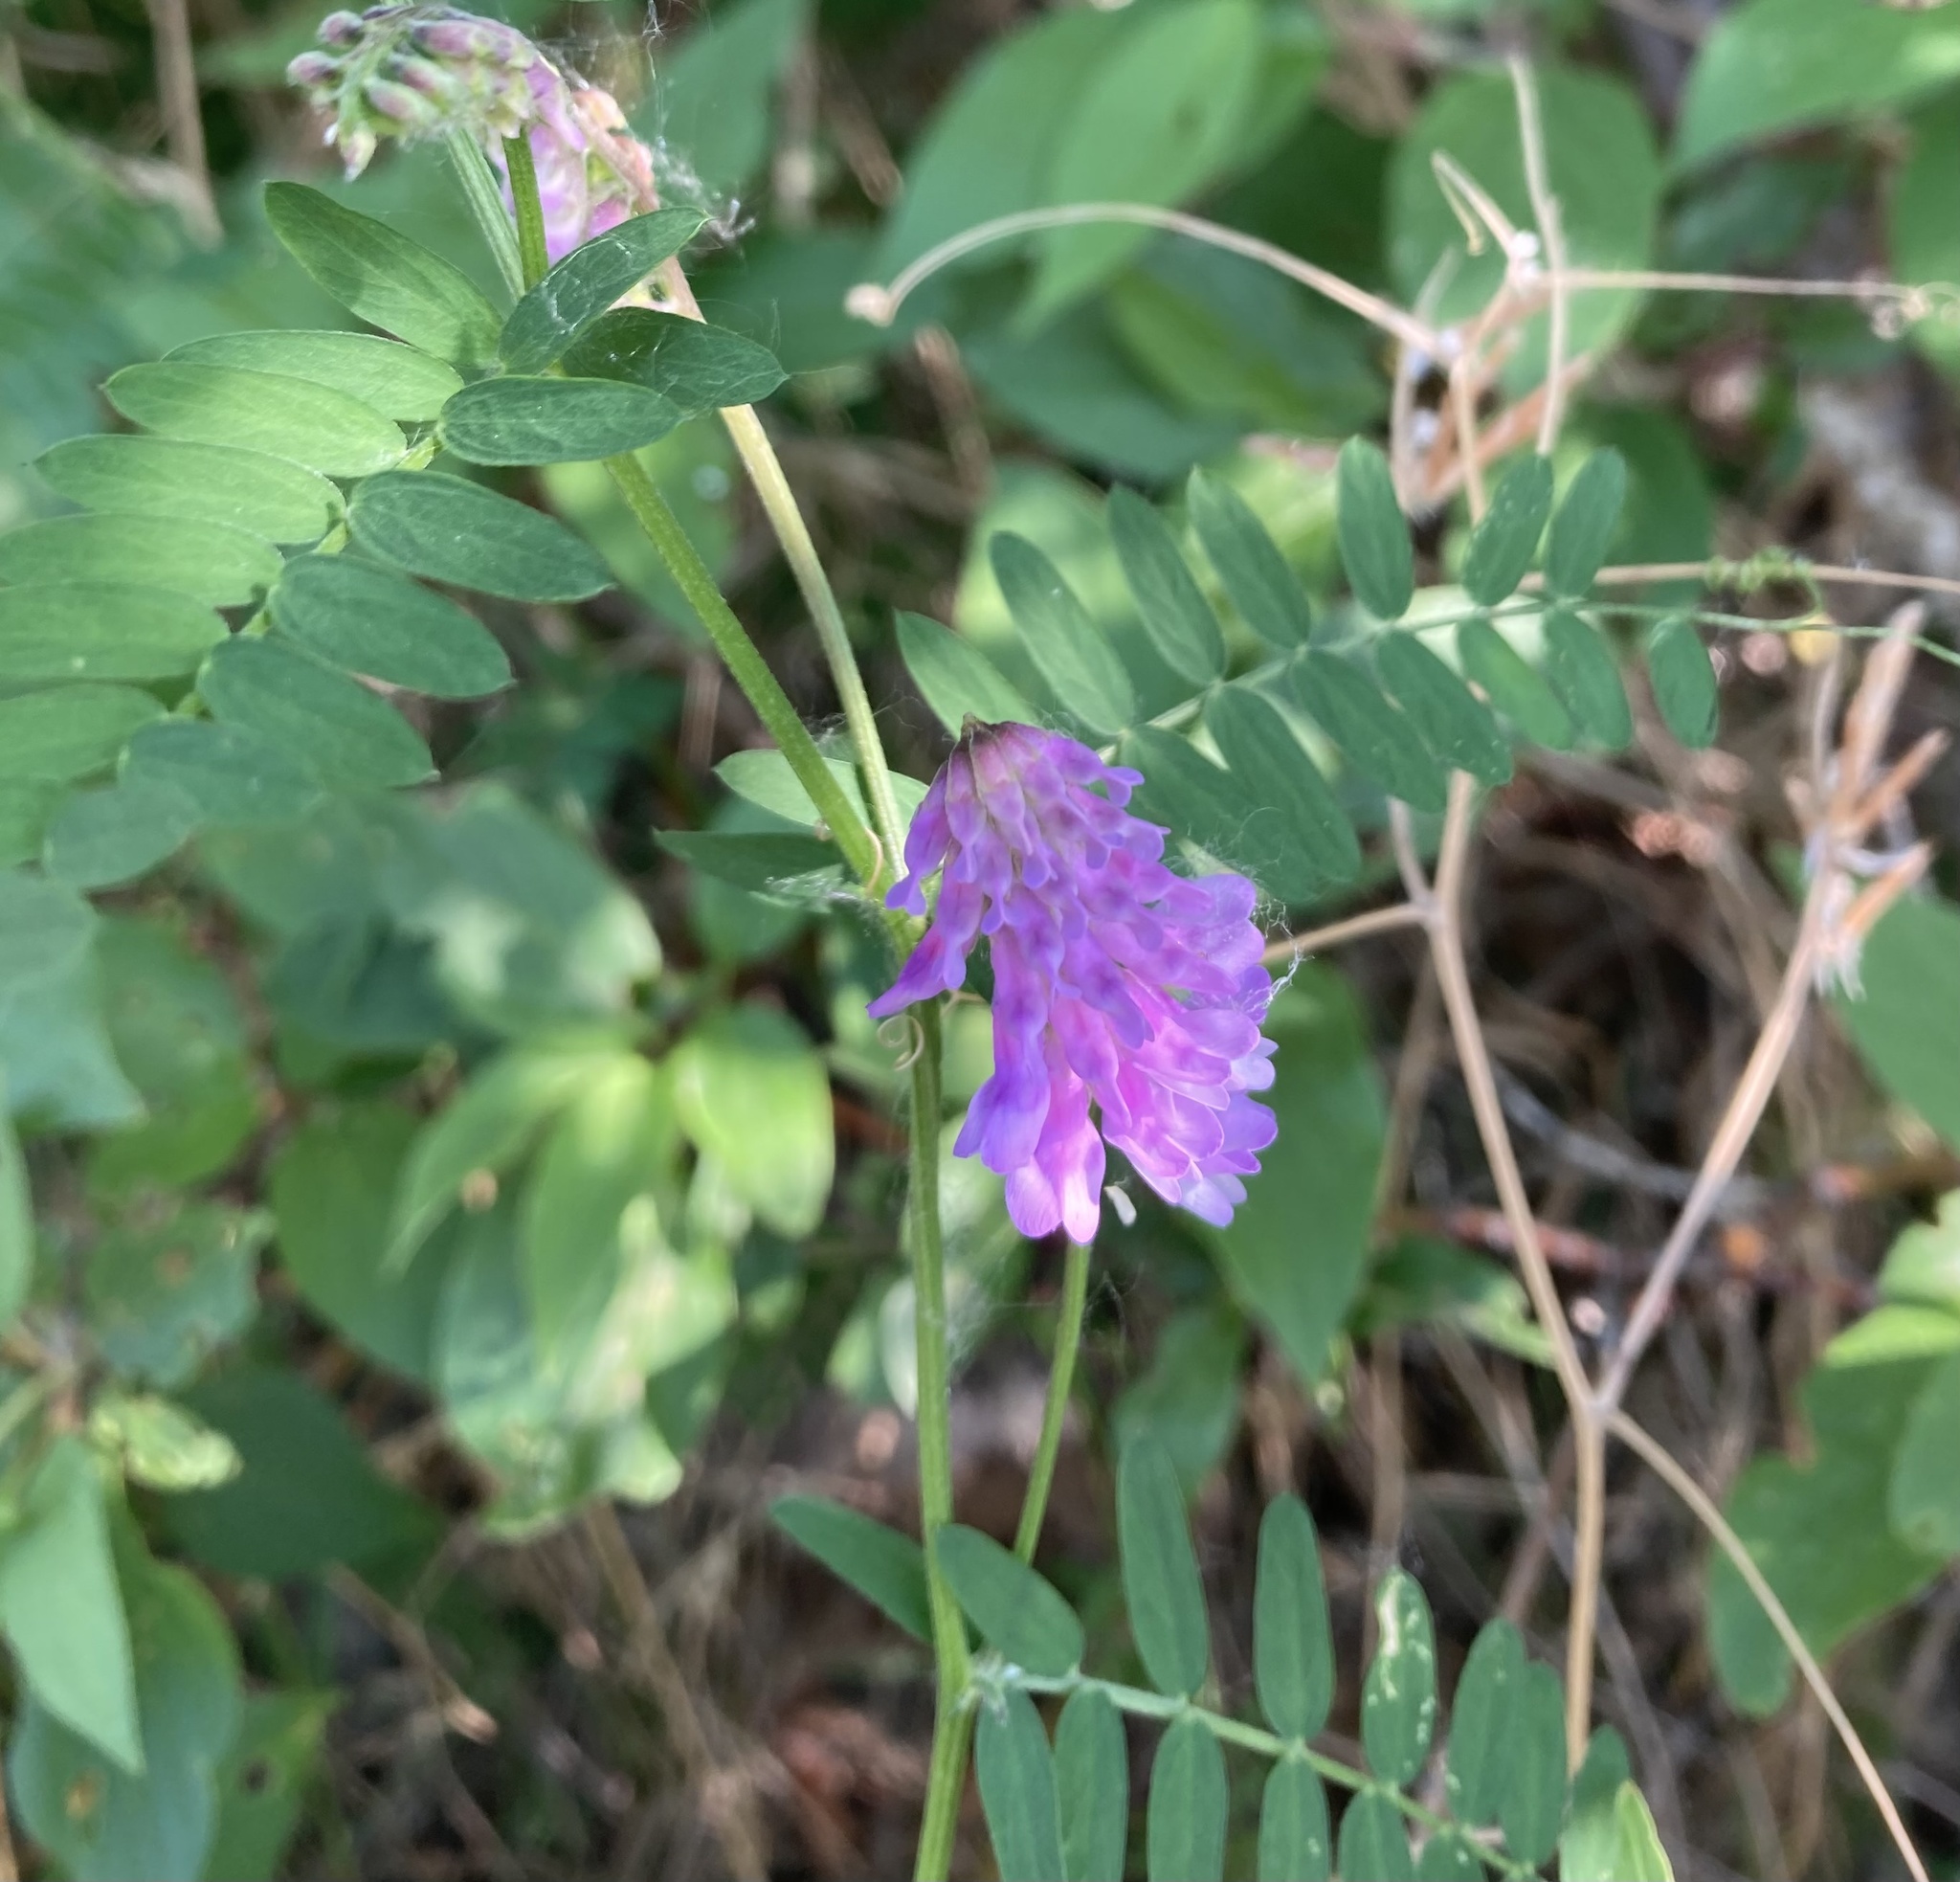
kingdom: Plantae
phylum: Tracheophyta
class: Magnoliopsida
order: Fabales
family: Fabaceae
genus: Vicia
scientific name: Vicia cracca
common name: Bird vetch
